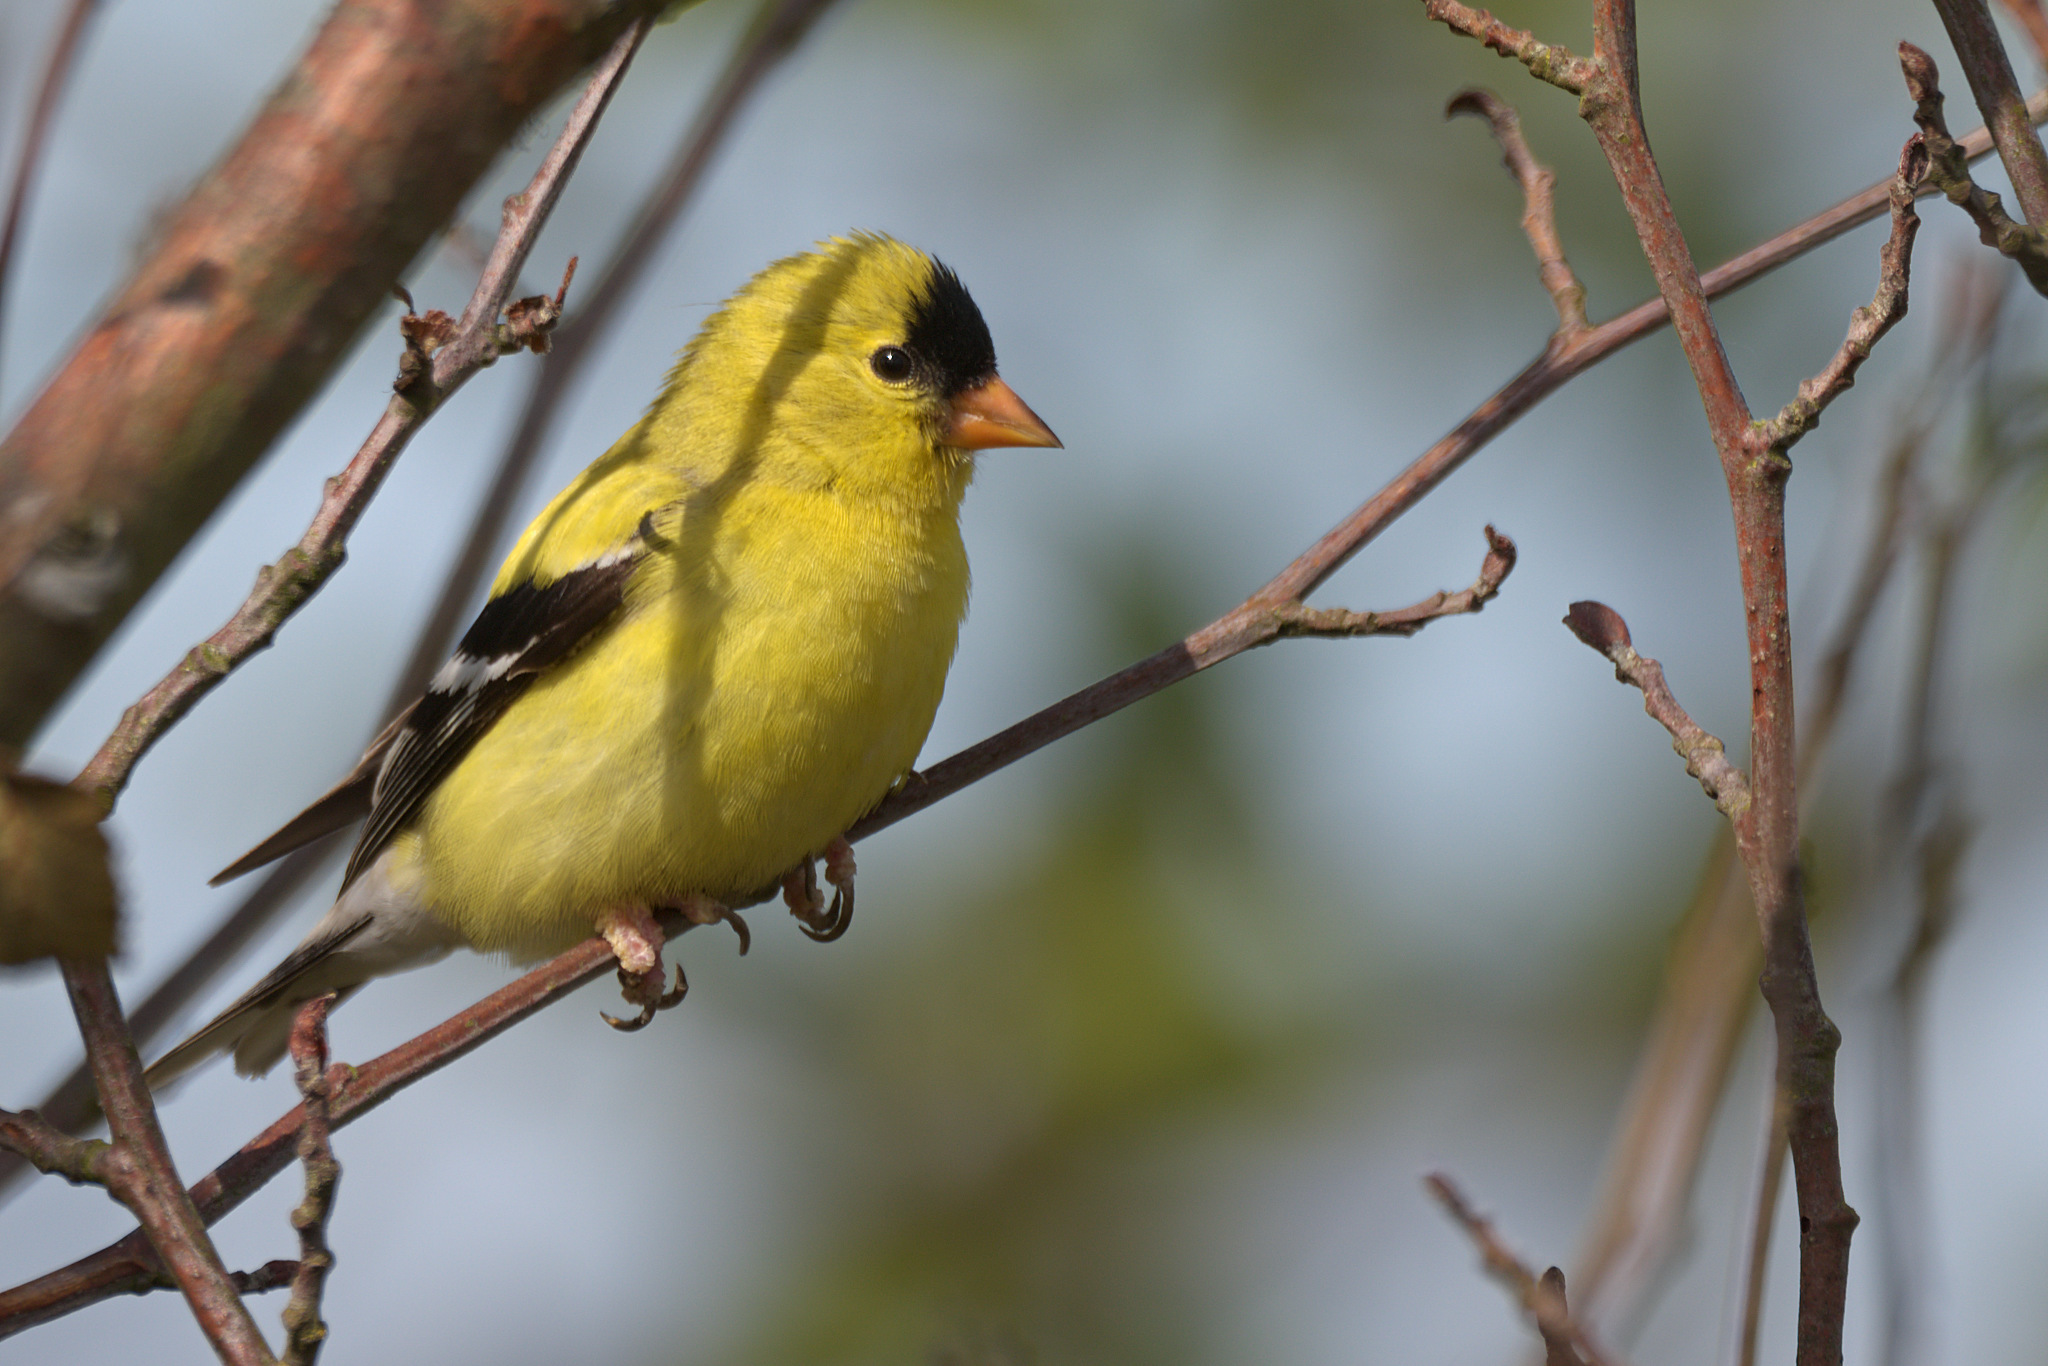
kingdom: Animalia
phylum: Chordata
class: Aves
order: Passeriformes
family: Fringillidae
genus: Spinus
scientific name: Spinus tristis
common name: American goldfinch
